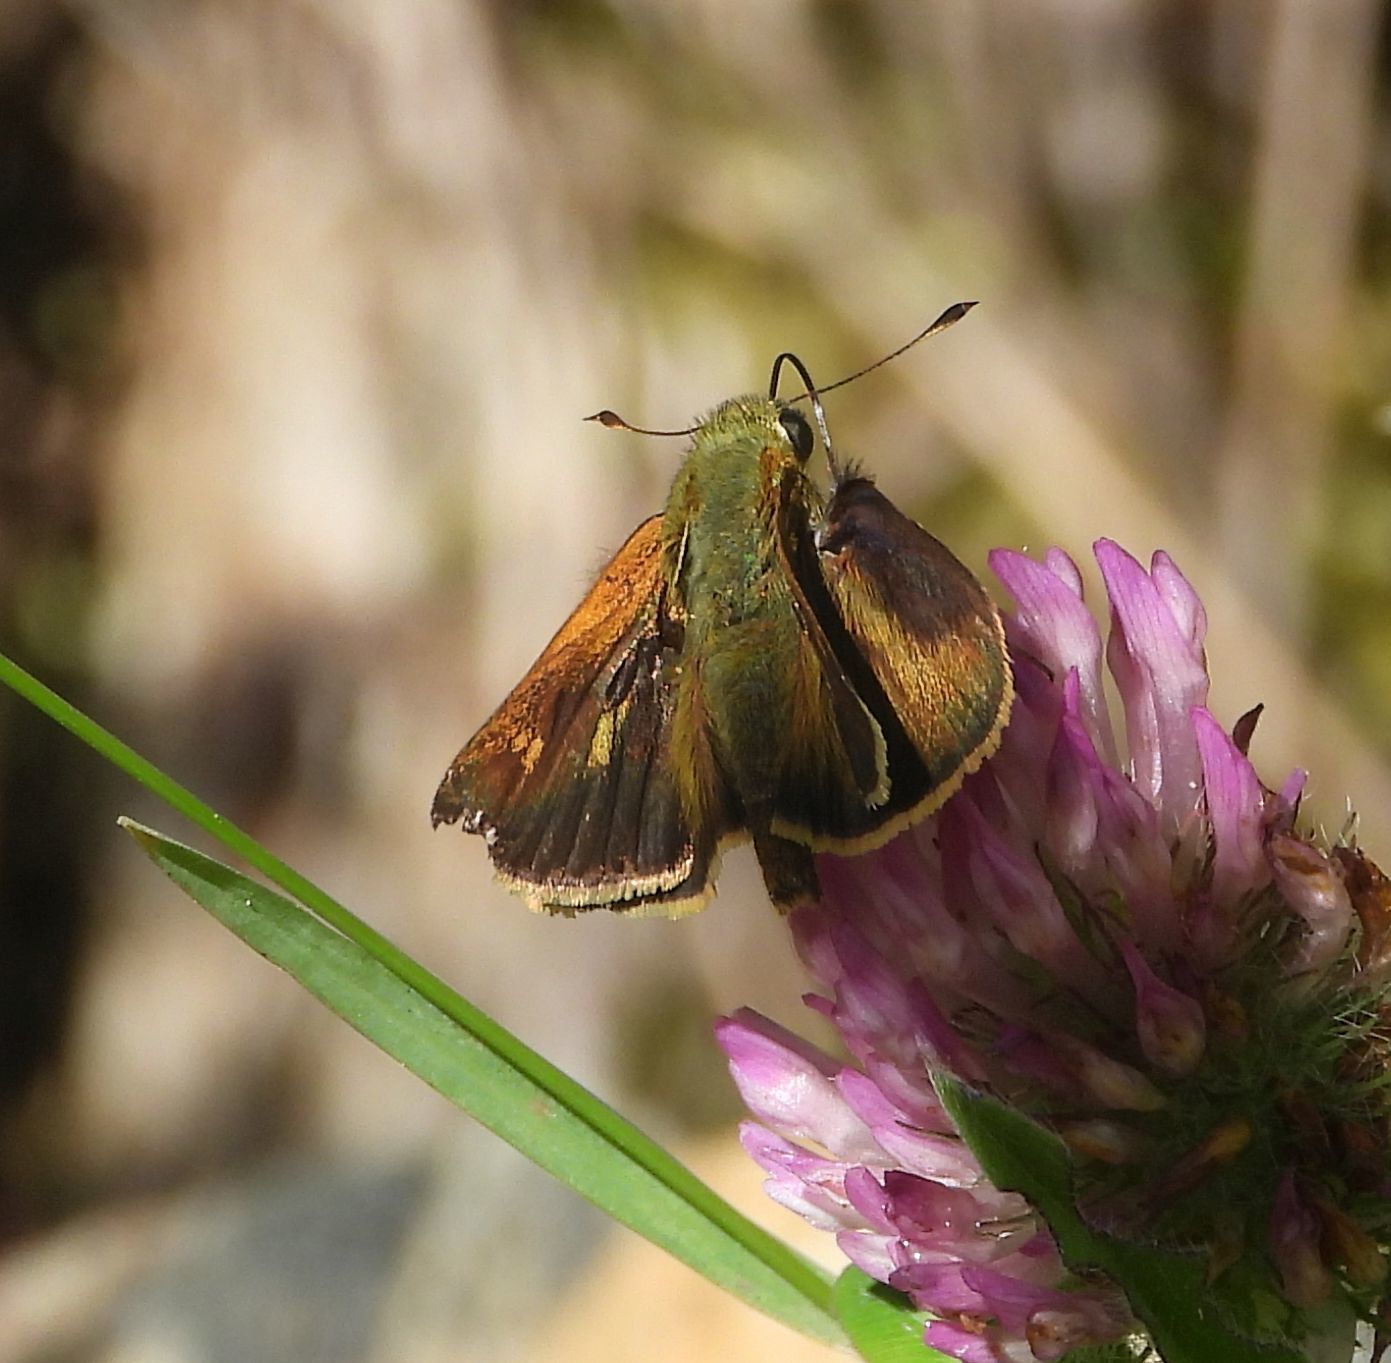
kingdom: Animalia
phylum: Arthropoda
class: Insecta
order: Lepidoptera
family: Hesperiidae
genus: Polites
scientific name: Polites egeremet
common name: Northern broken-dash
